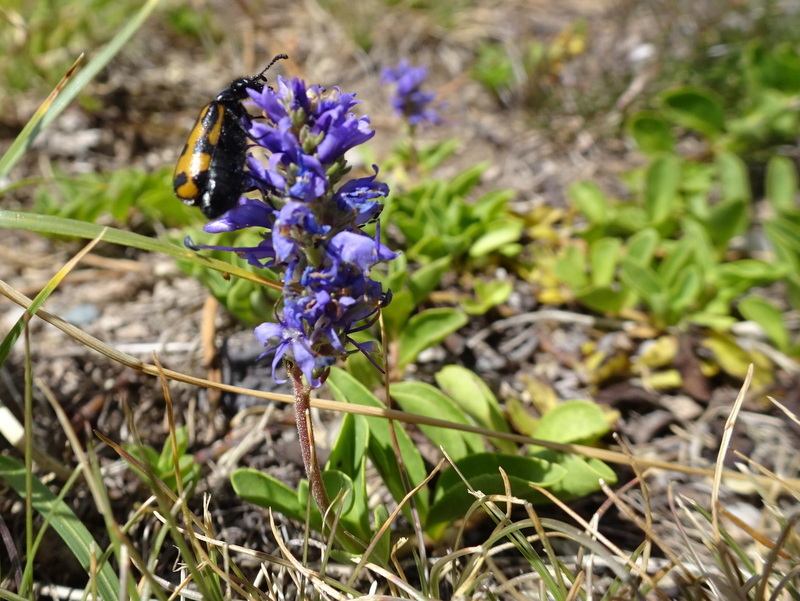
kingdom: Plantae
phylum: Tracheophyta
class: Magnoliopsida
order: Lamiales
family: Plantaginaceae
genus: Veronica
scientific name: Veronica allionii
